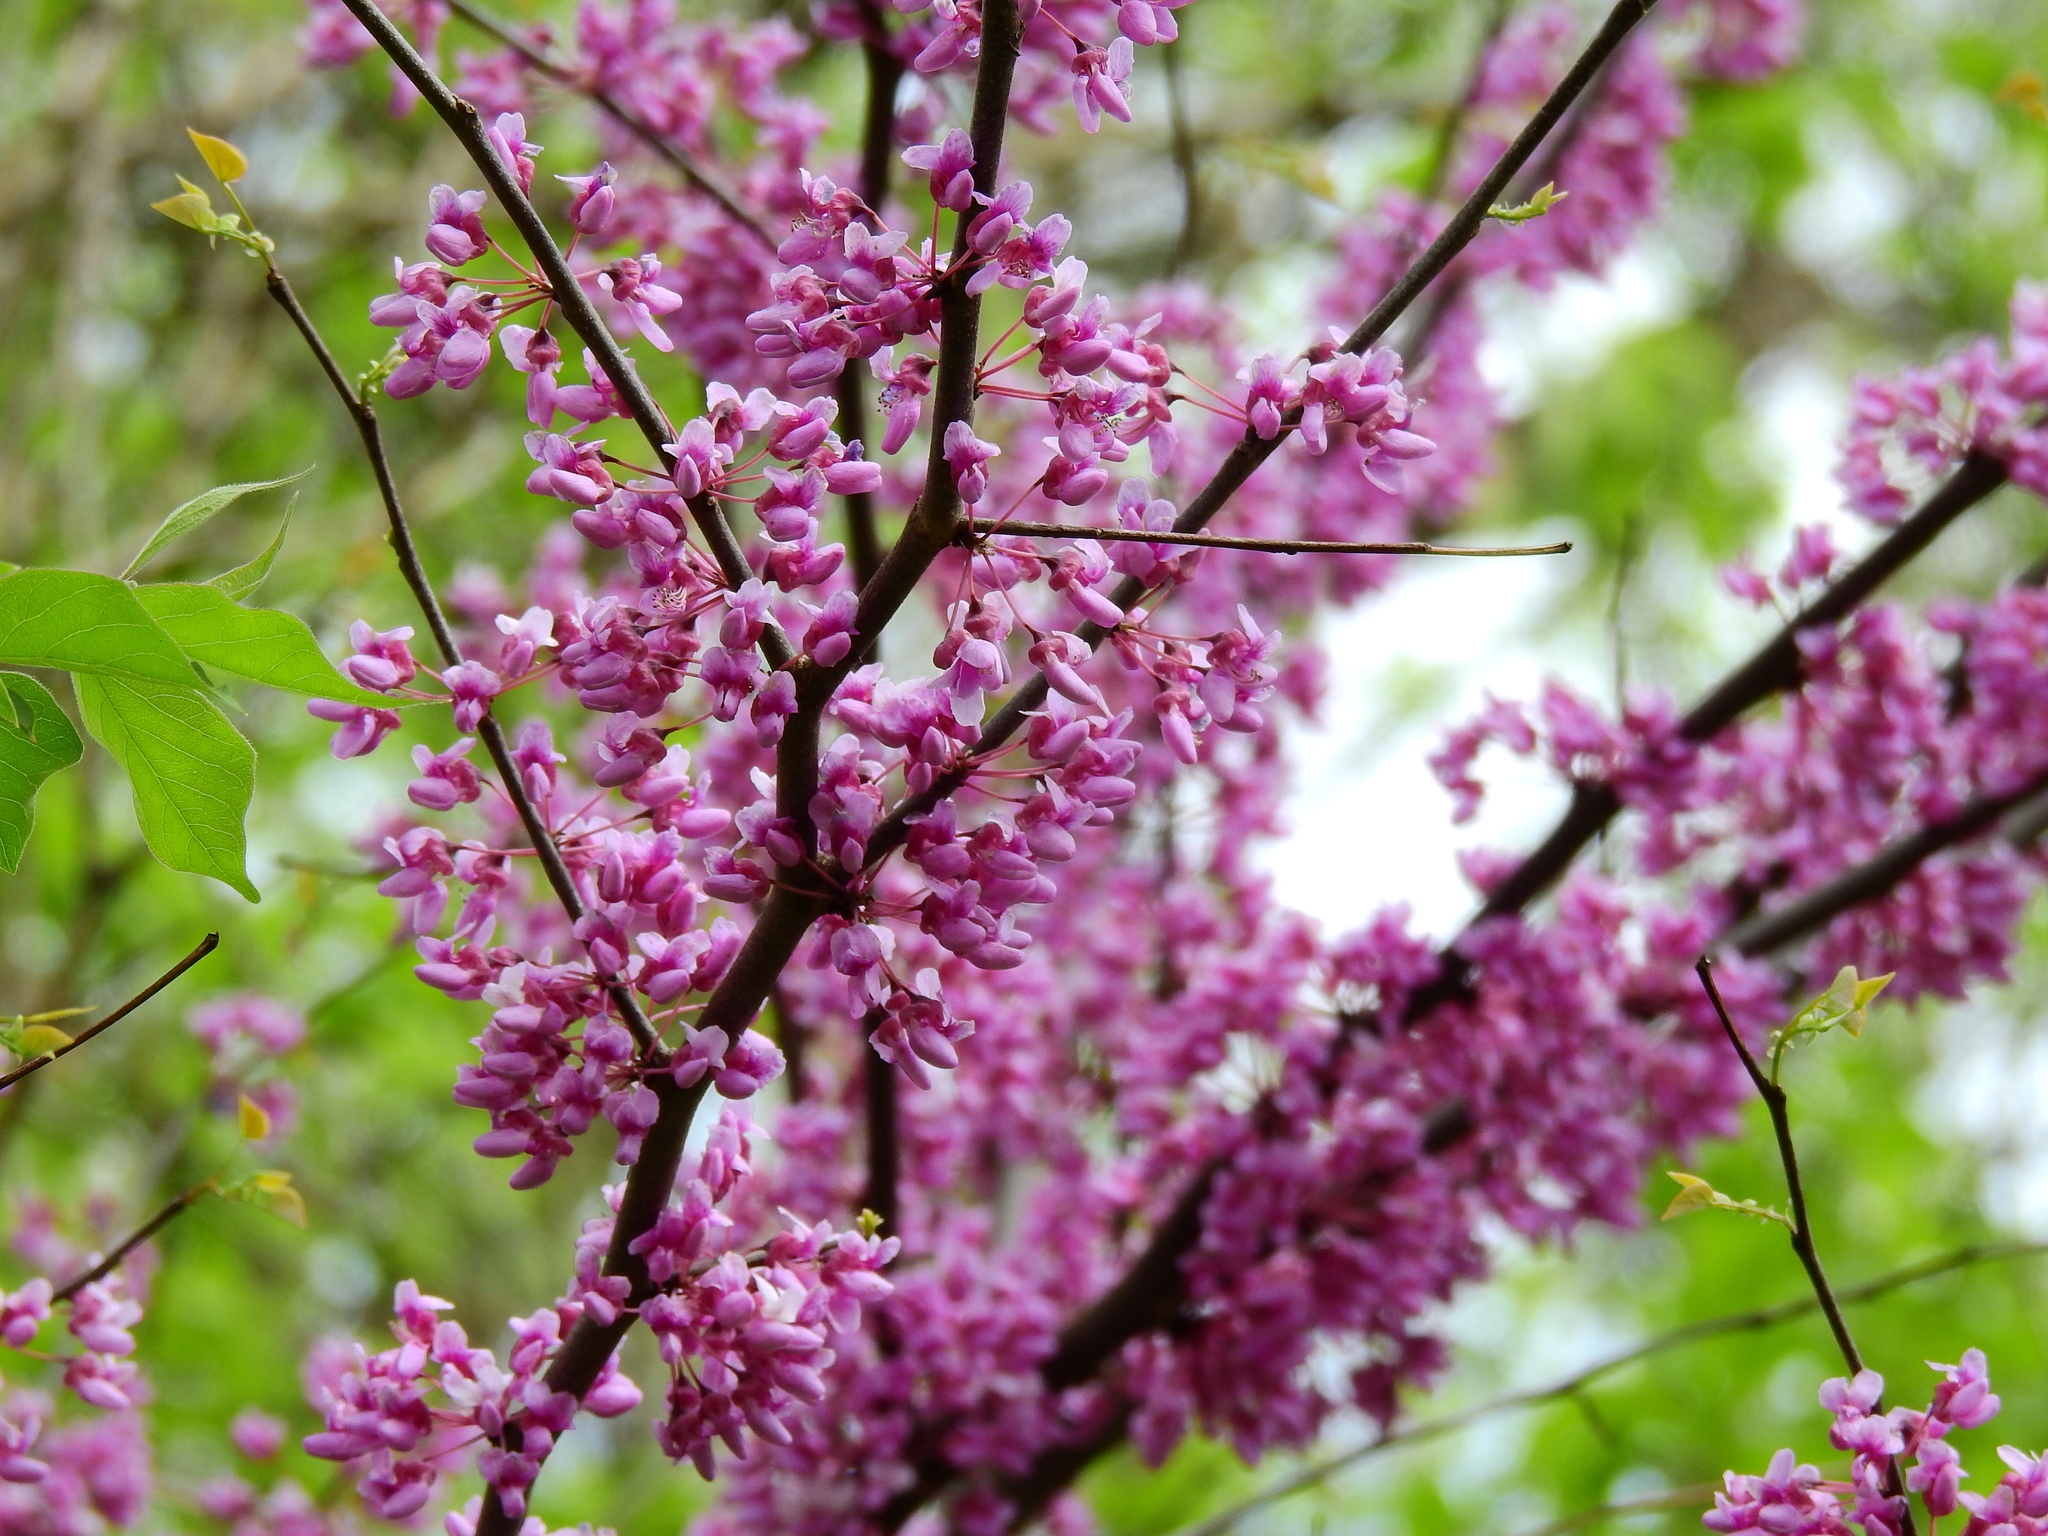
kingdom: Plantae
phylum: Tracheophyta
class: Magnoliopsida
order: Fabales
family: Fabaceae
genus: Cercis
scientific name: Cercis canadensis
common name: Eastern redbud
